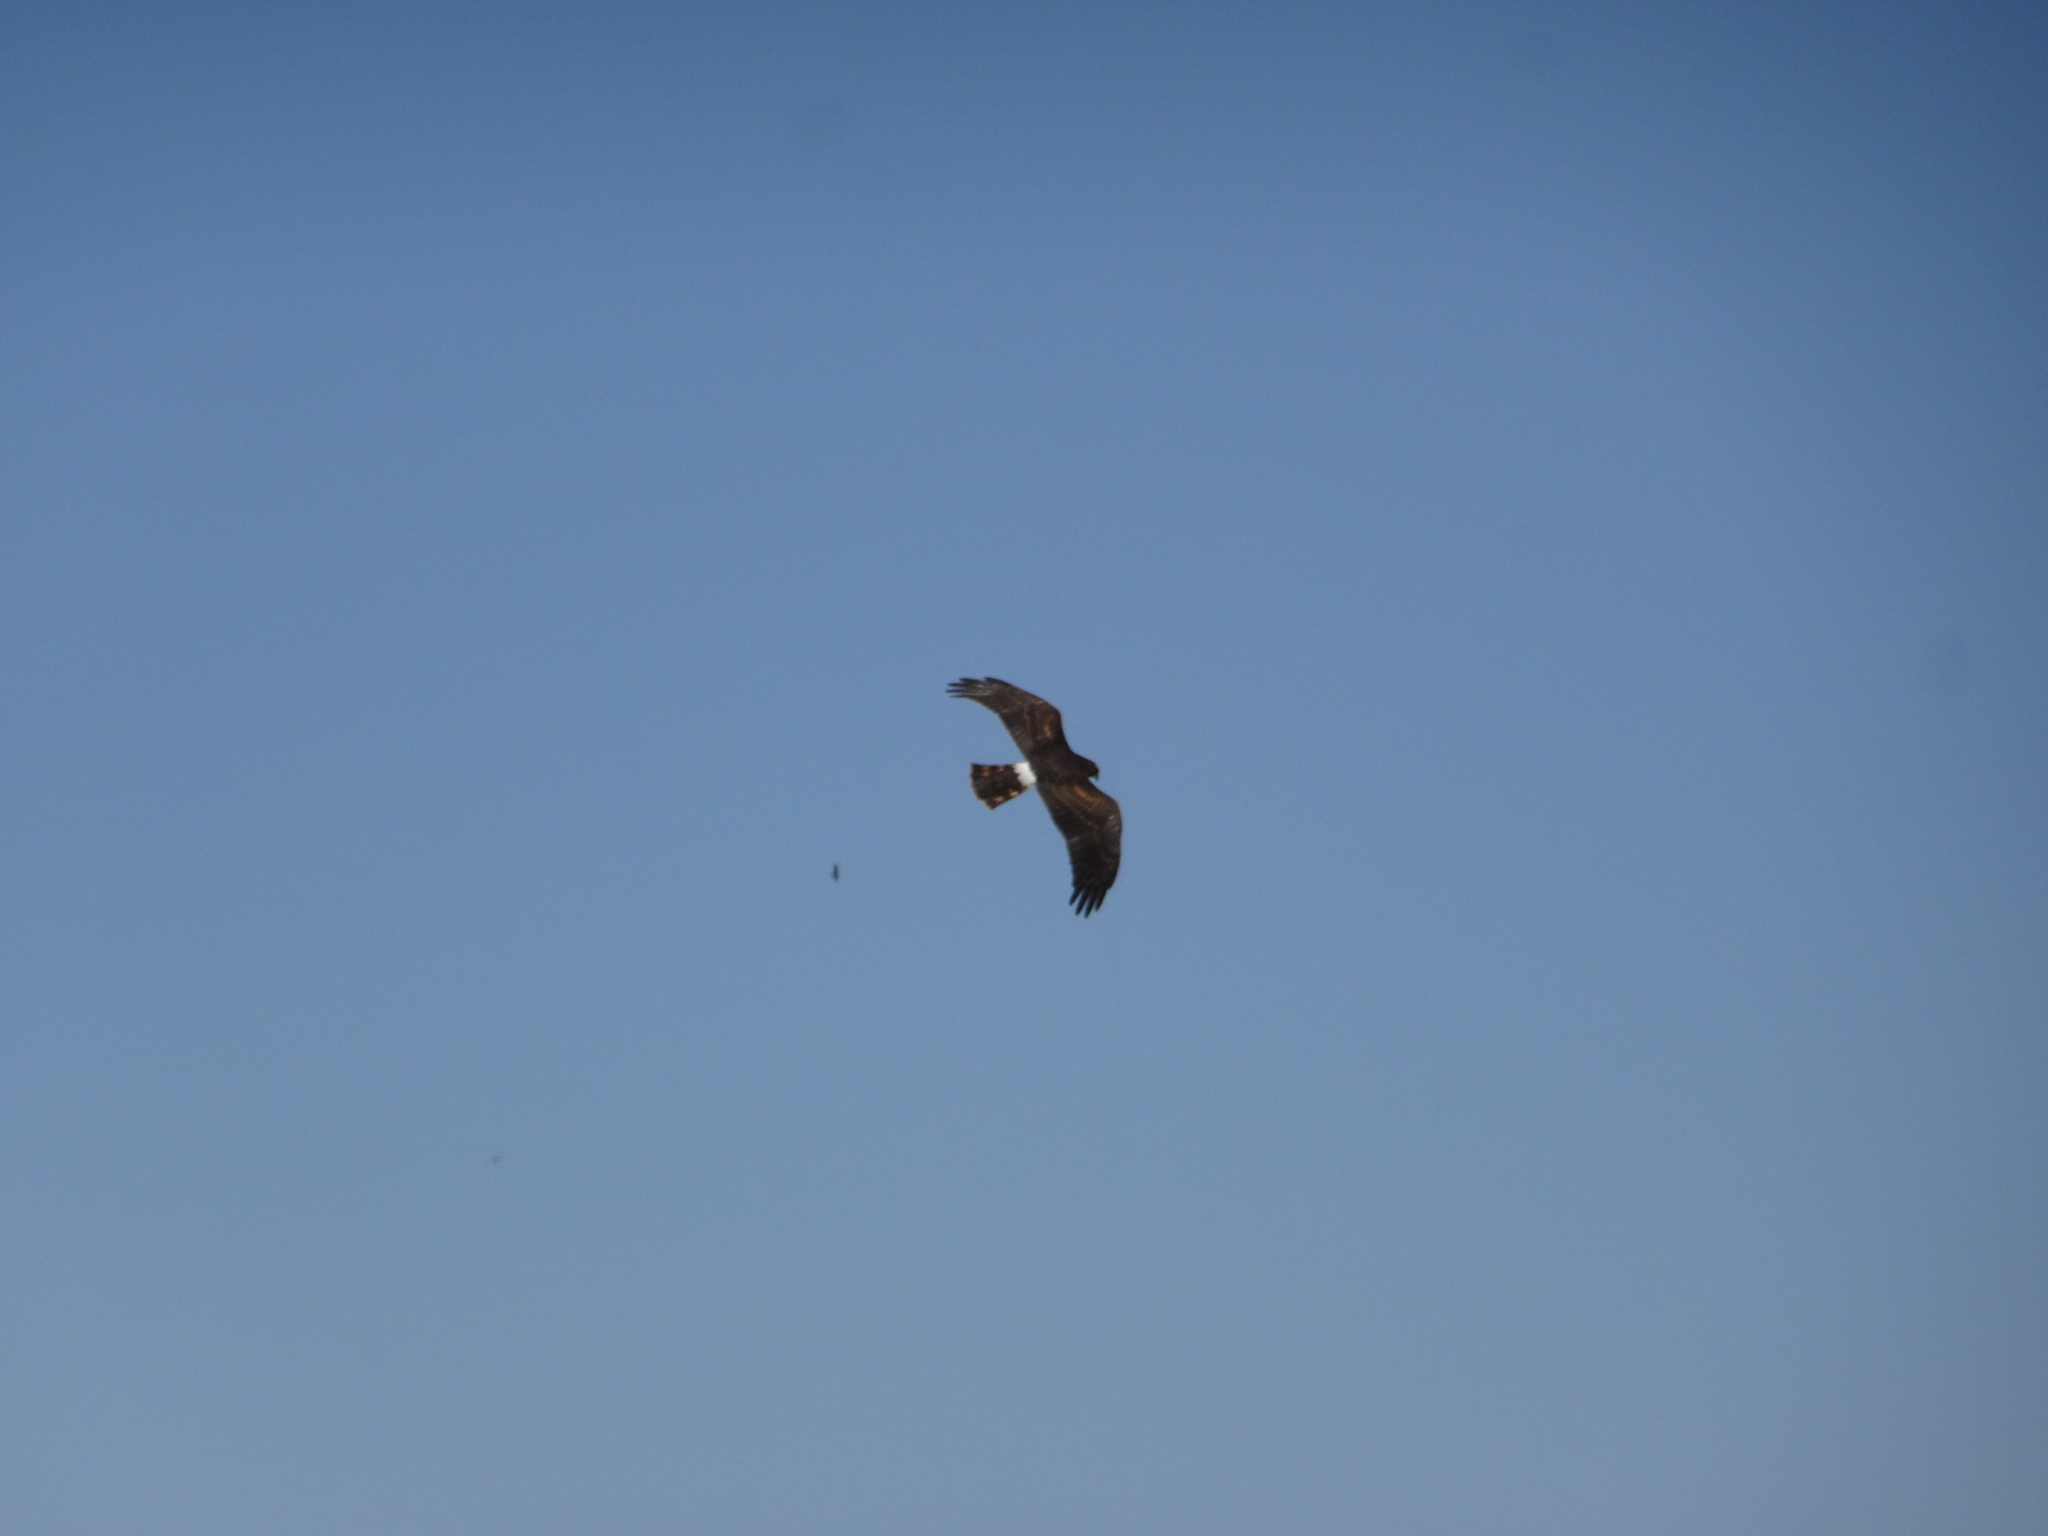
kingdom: Animalia
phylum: Chordata
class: Aves
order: Accipitriformes
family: Accipitridae
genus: Circus
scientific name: Circus cyaneus
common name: Hen harrier
